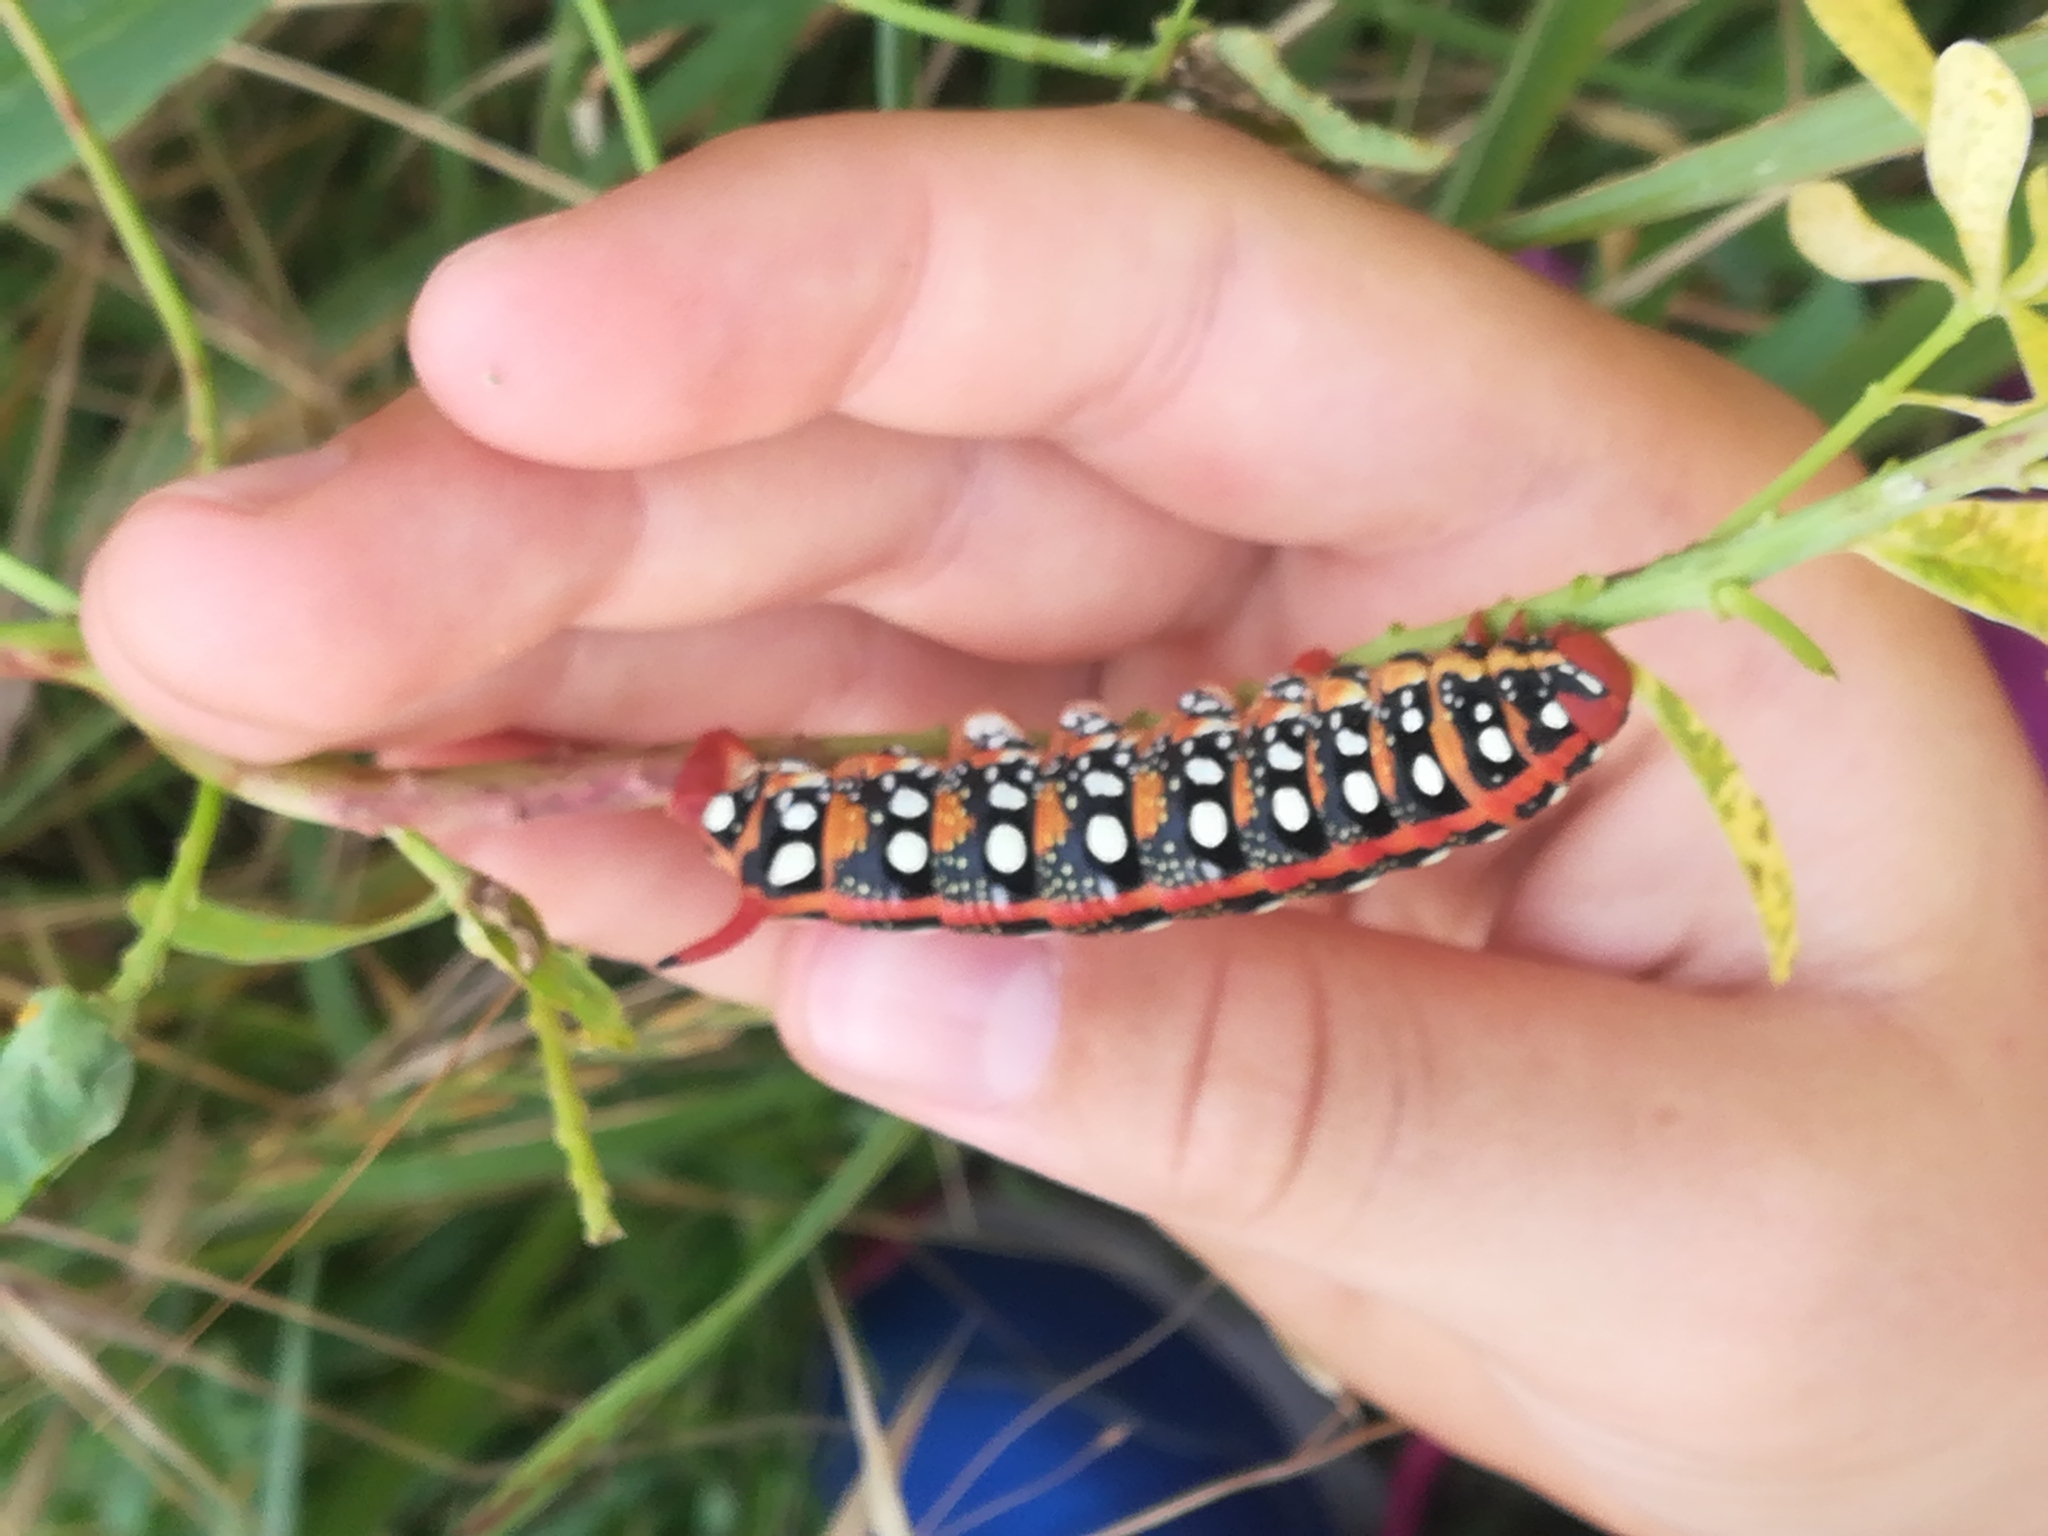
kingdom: Animalia
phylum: Arthropoda
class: Insecta
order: Lepidoptera
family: Sphingidae
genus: Hyles
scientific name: Hyles euphorbiae
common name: Spurge hawk-moth
